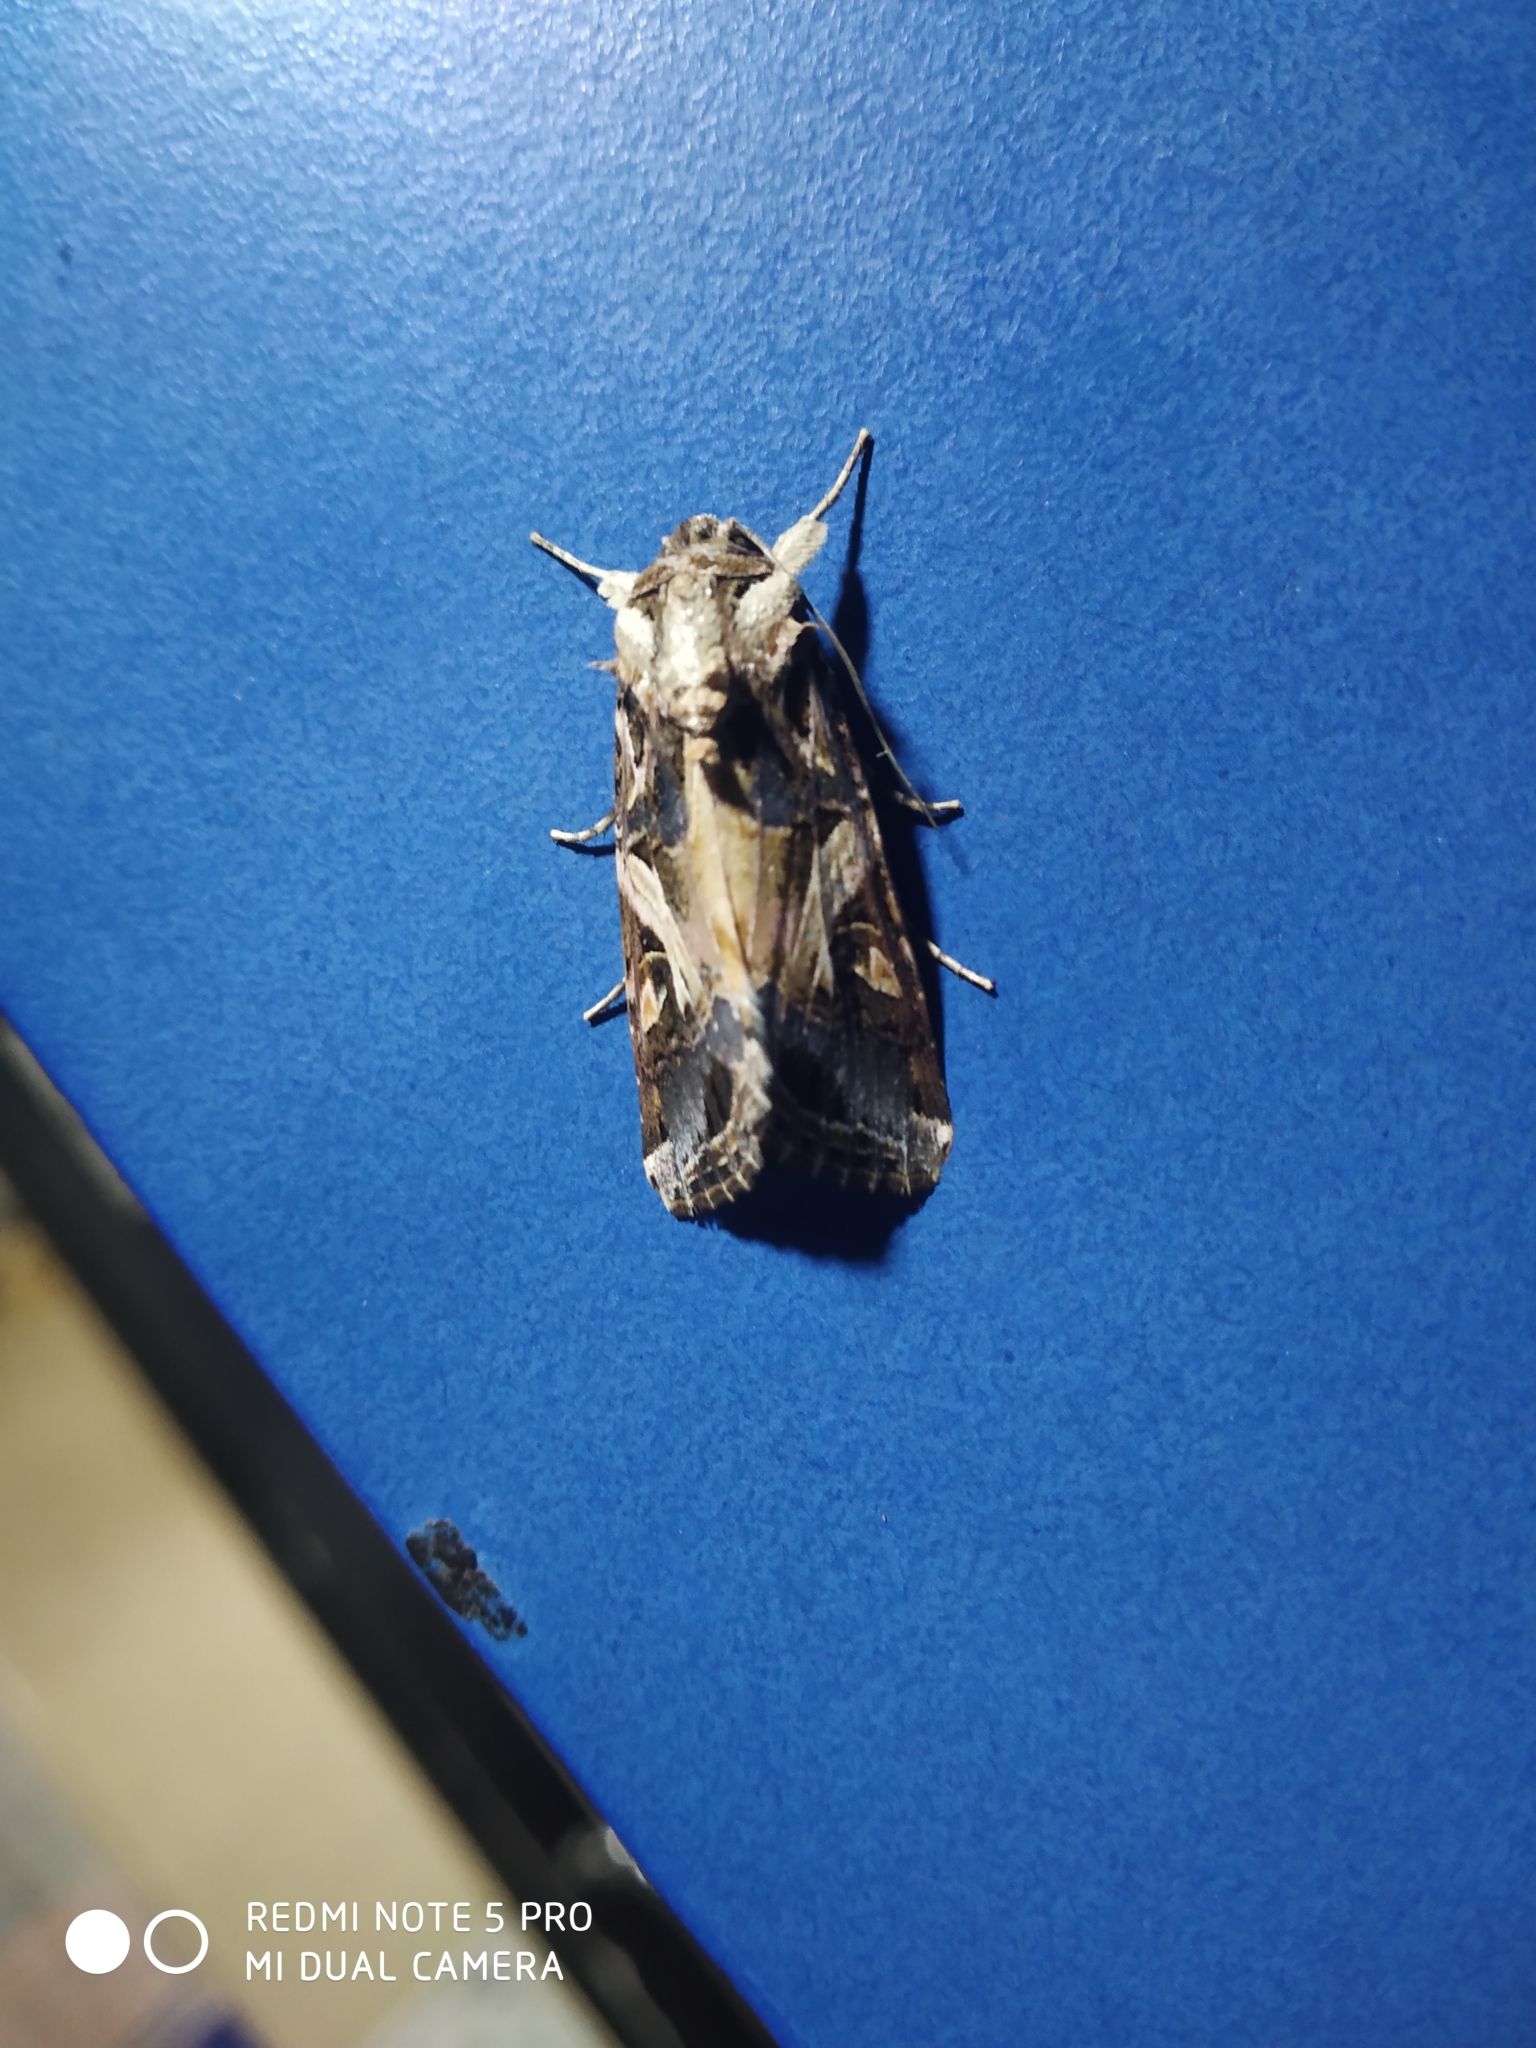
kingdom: Animalia
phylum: Arthropoda
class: Insecta
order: Lepidoptera
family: Noctuidae
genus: Spodoptera
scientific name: Spodoptera litura
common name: Asian cotton leafworm
